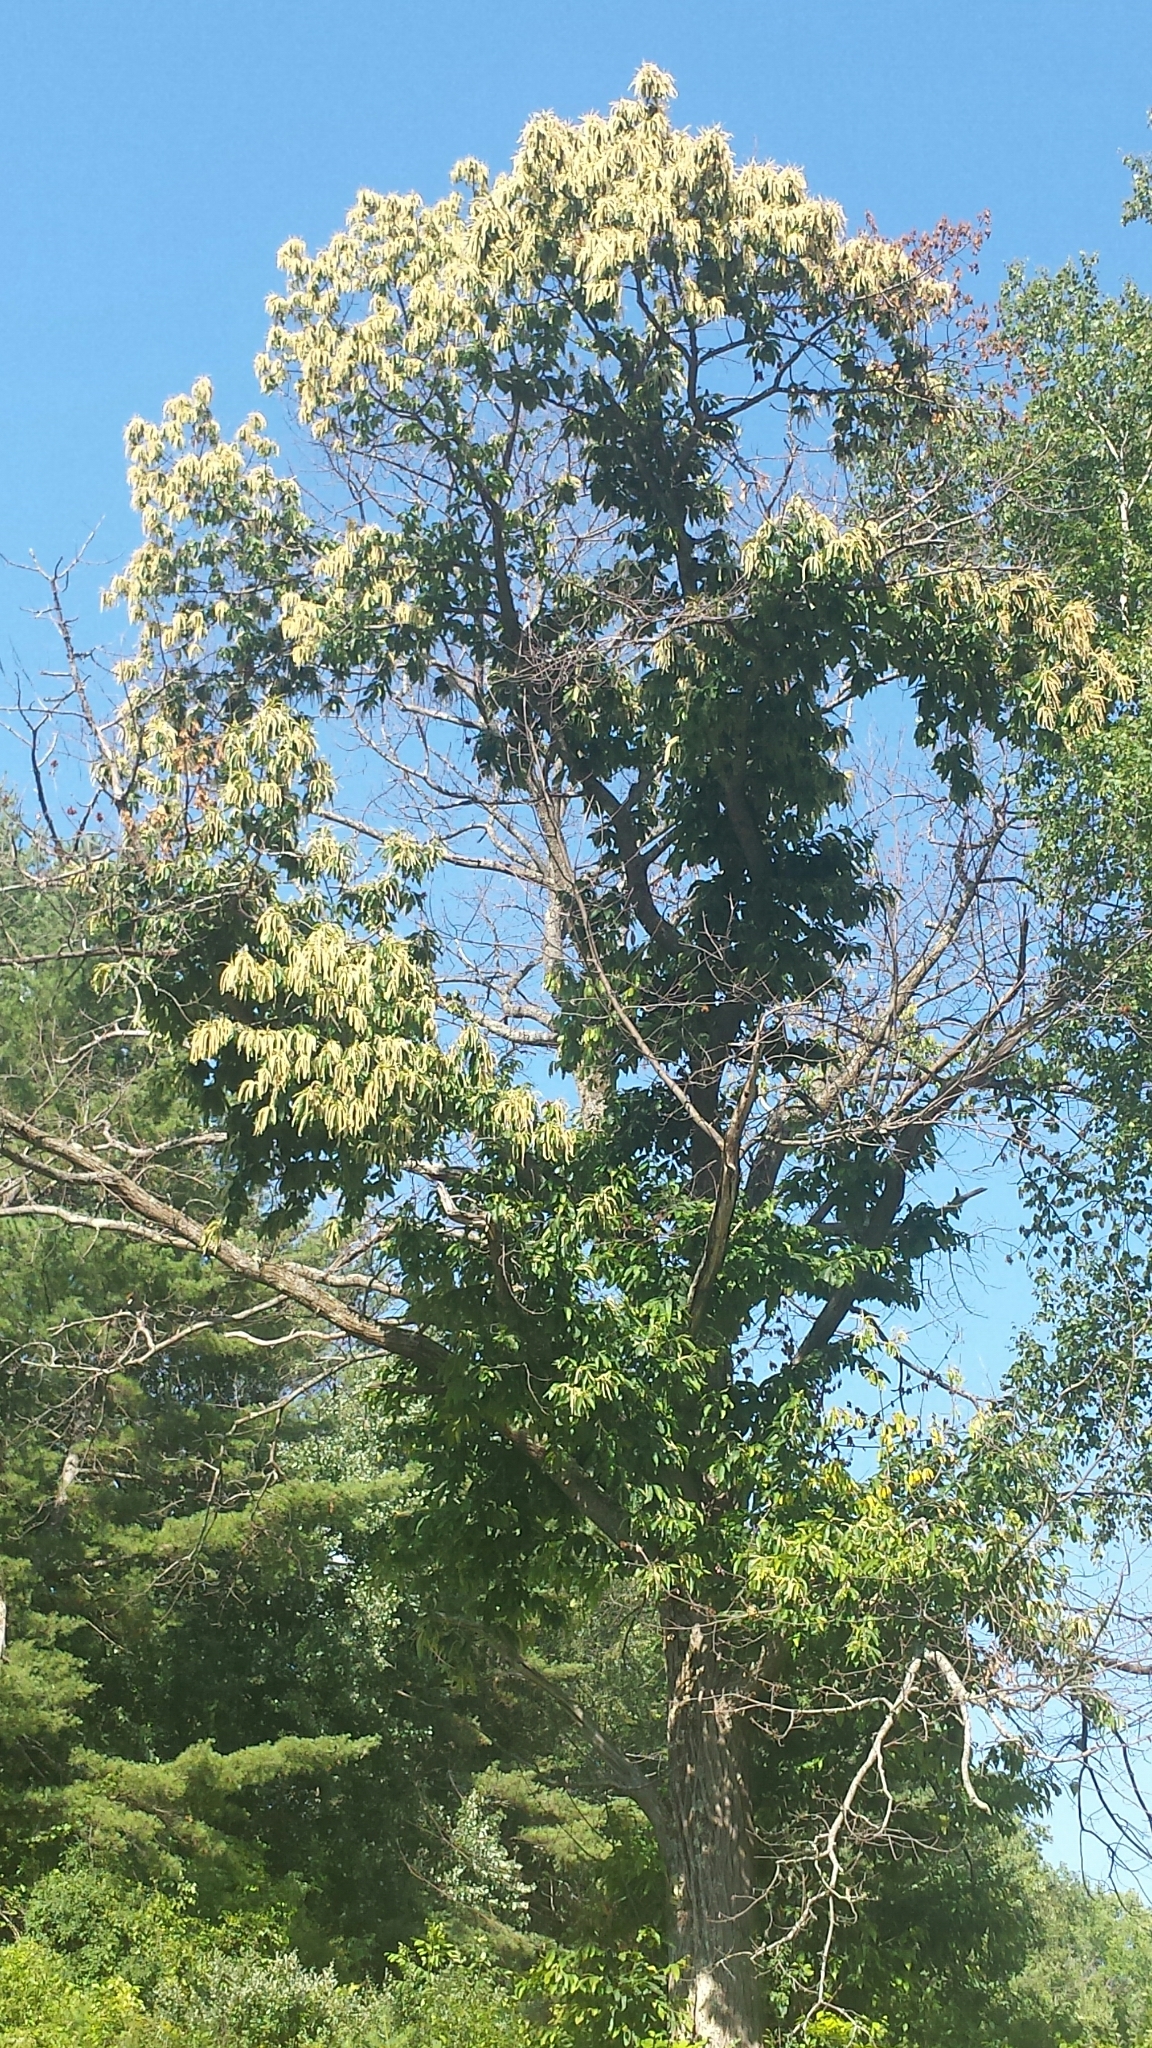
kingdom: Plantae
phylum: Tracheophyta
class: Magnoliopsida
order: Fagales
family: Fagaceae
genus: Castanea
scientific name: Castanea dentata
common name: American chestnut
